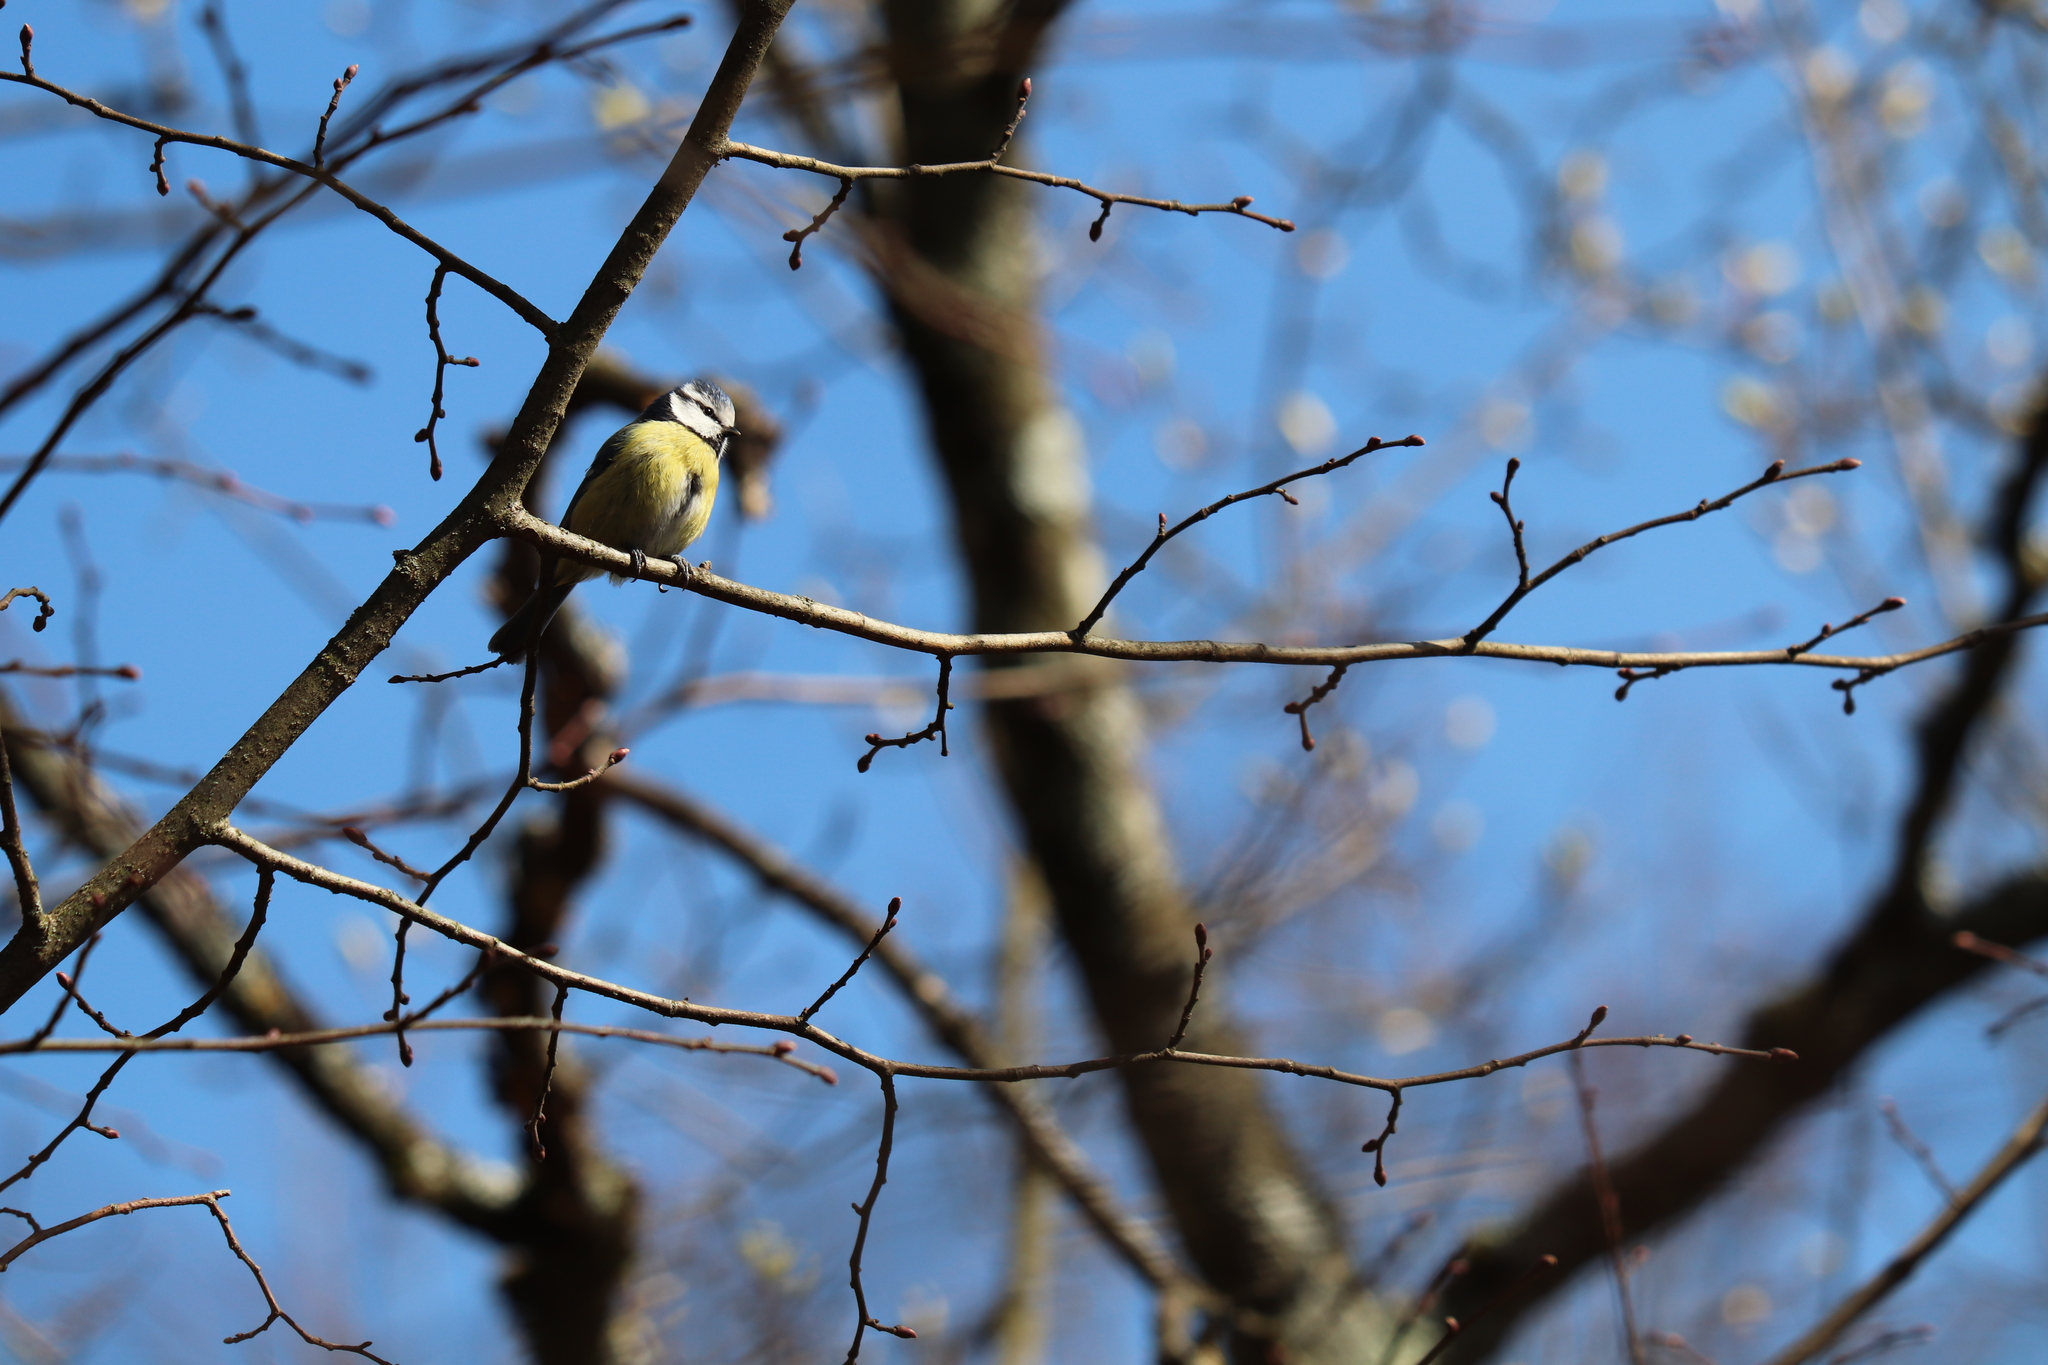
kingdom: Animalia
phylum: Chordata
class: Aves
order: Passeriformes
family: Paridae
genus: Cyanistes
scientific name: Cyanistes caeruleus
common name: Eurasian blue tit
